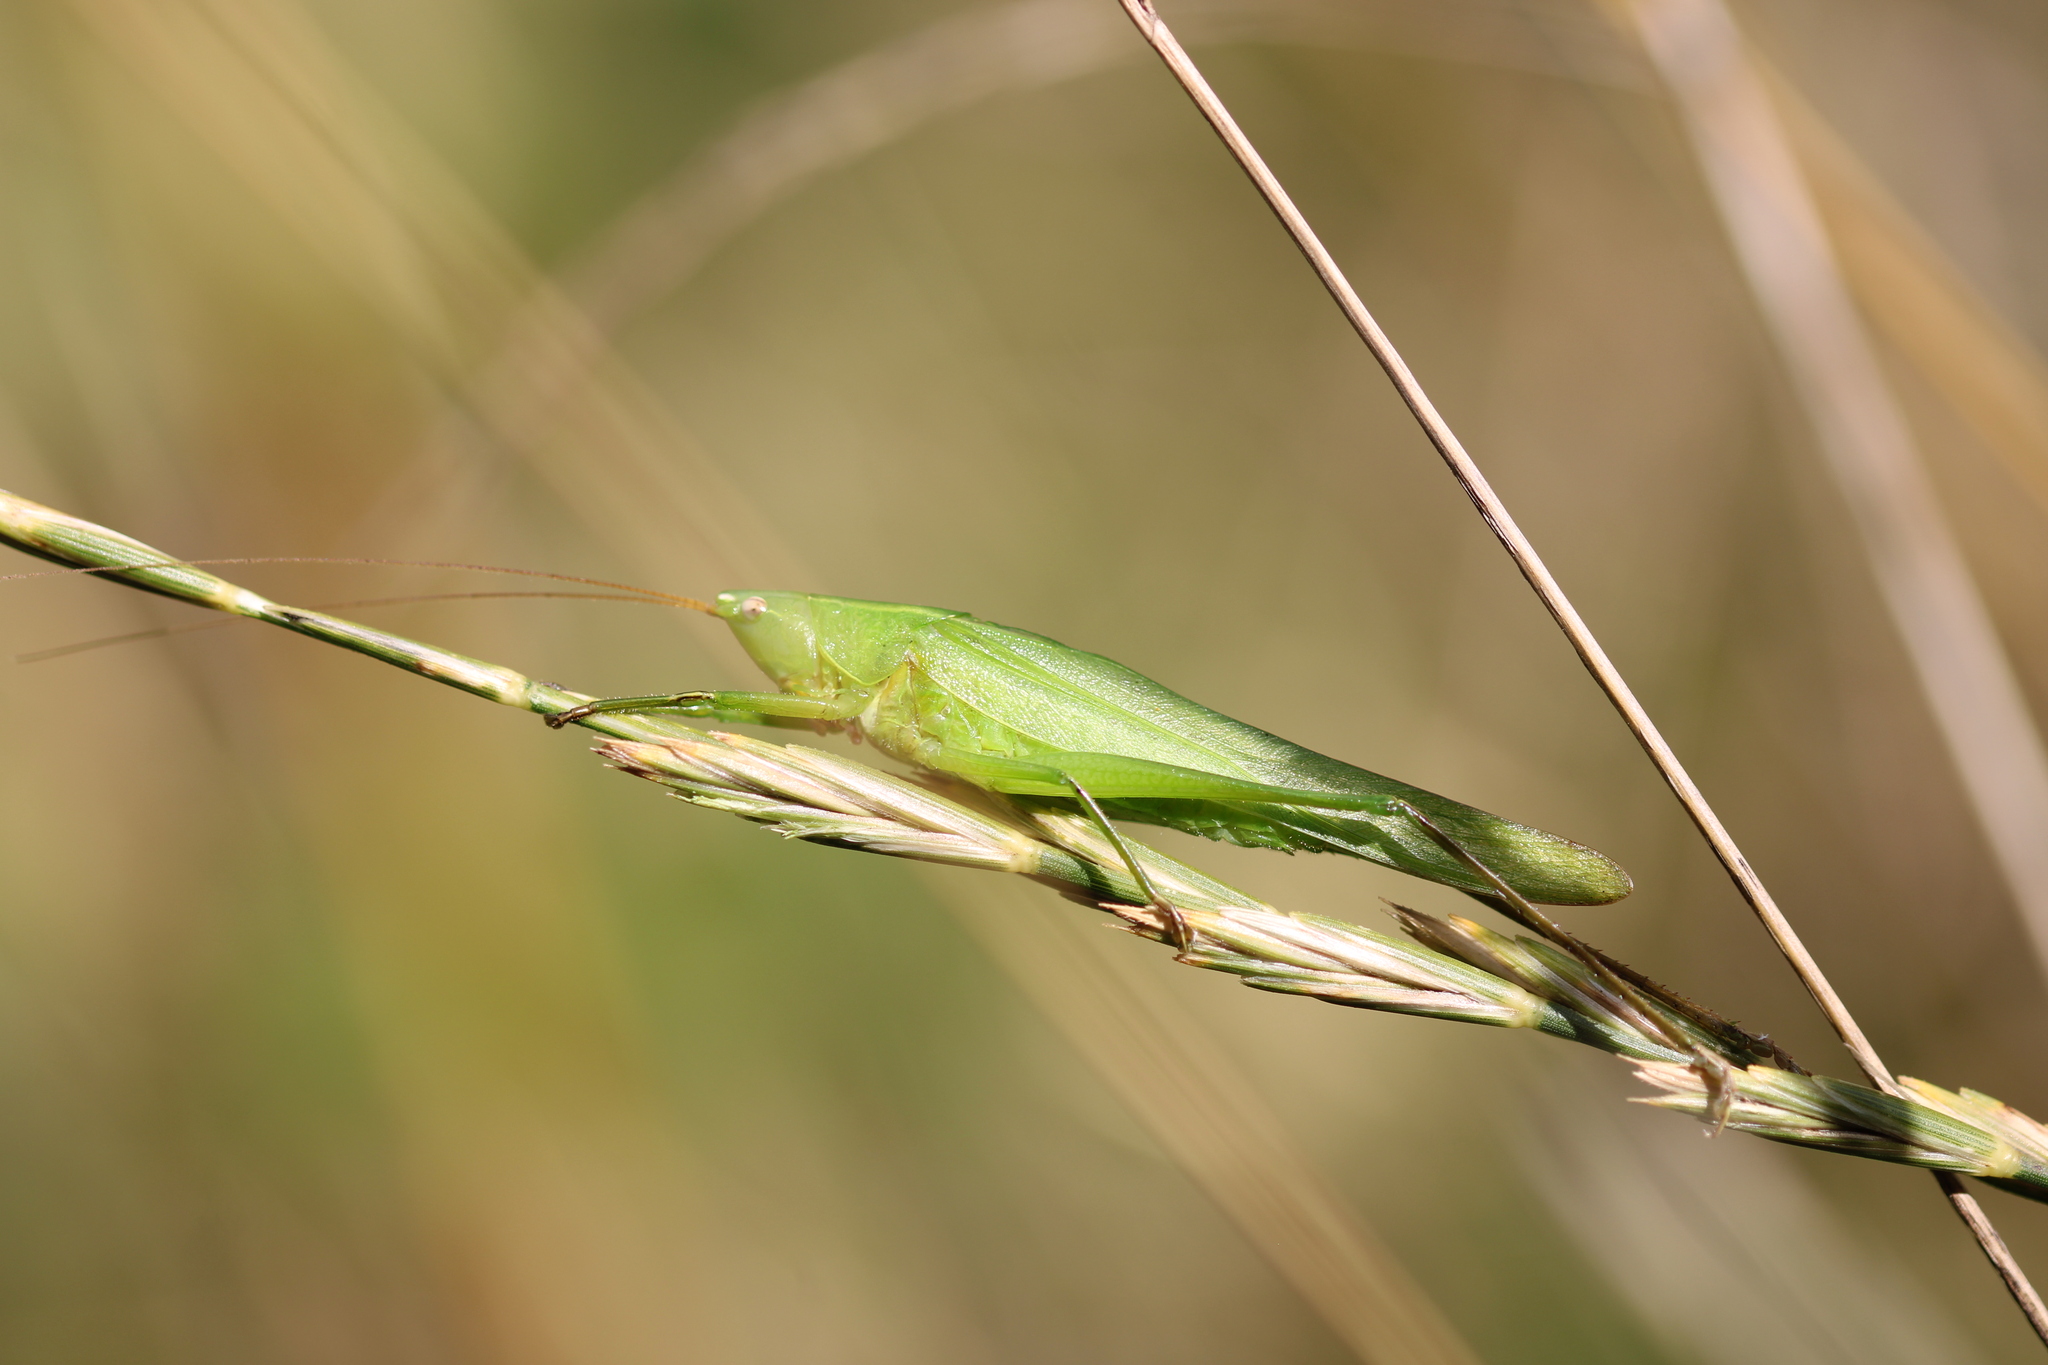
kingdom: Animalia
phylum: Arthropoda
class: Insecta
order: Orthoptera
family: Tettigoniidae
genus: Ruspolia
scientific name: Ruspolia nitidula
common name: Large conehead
